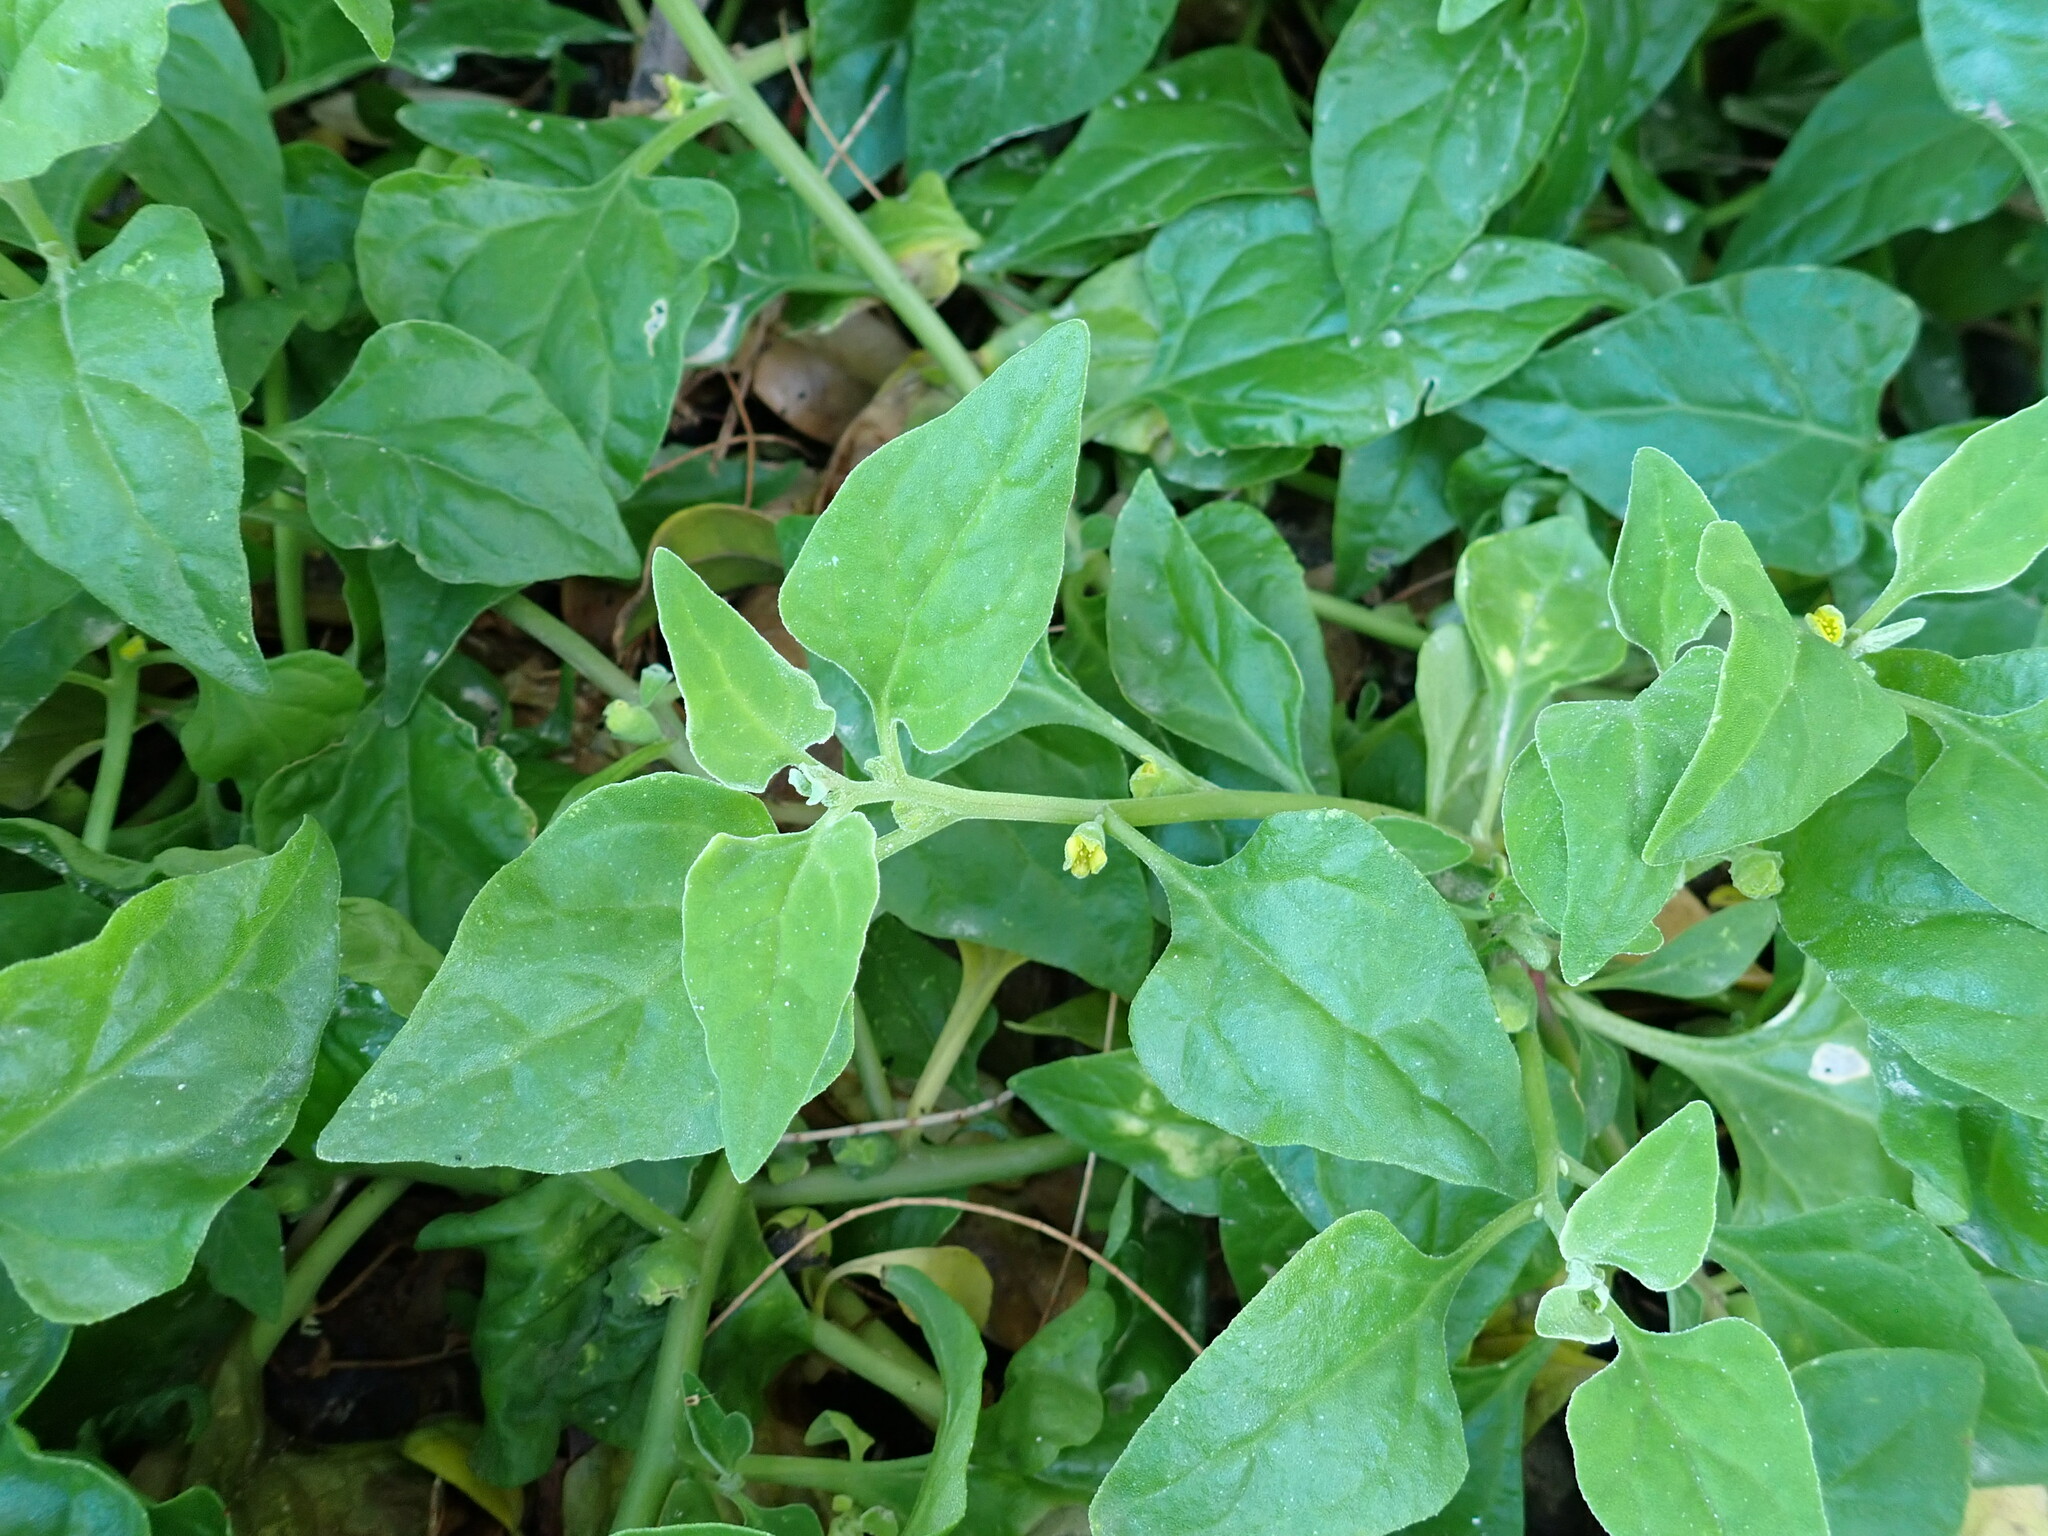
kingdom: Plantae
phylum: Tracheophyta
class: Magnoliopsida
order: Caryophyllales
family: Aizoaceae
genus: Tetragonia
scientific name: Tetragonia tetragonoides
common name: New zealand-spinach
